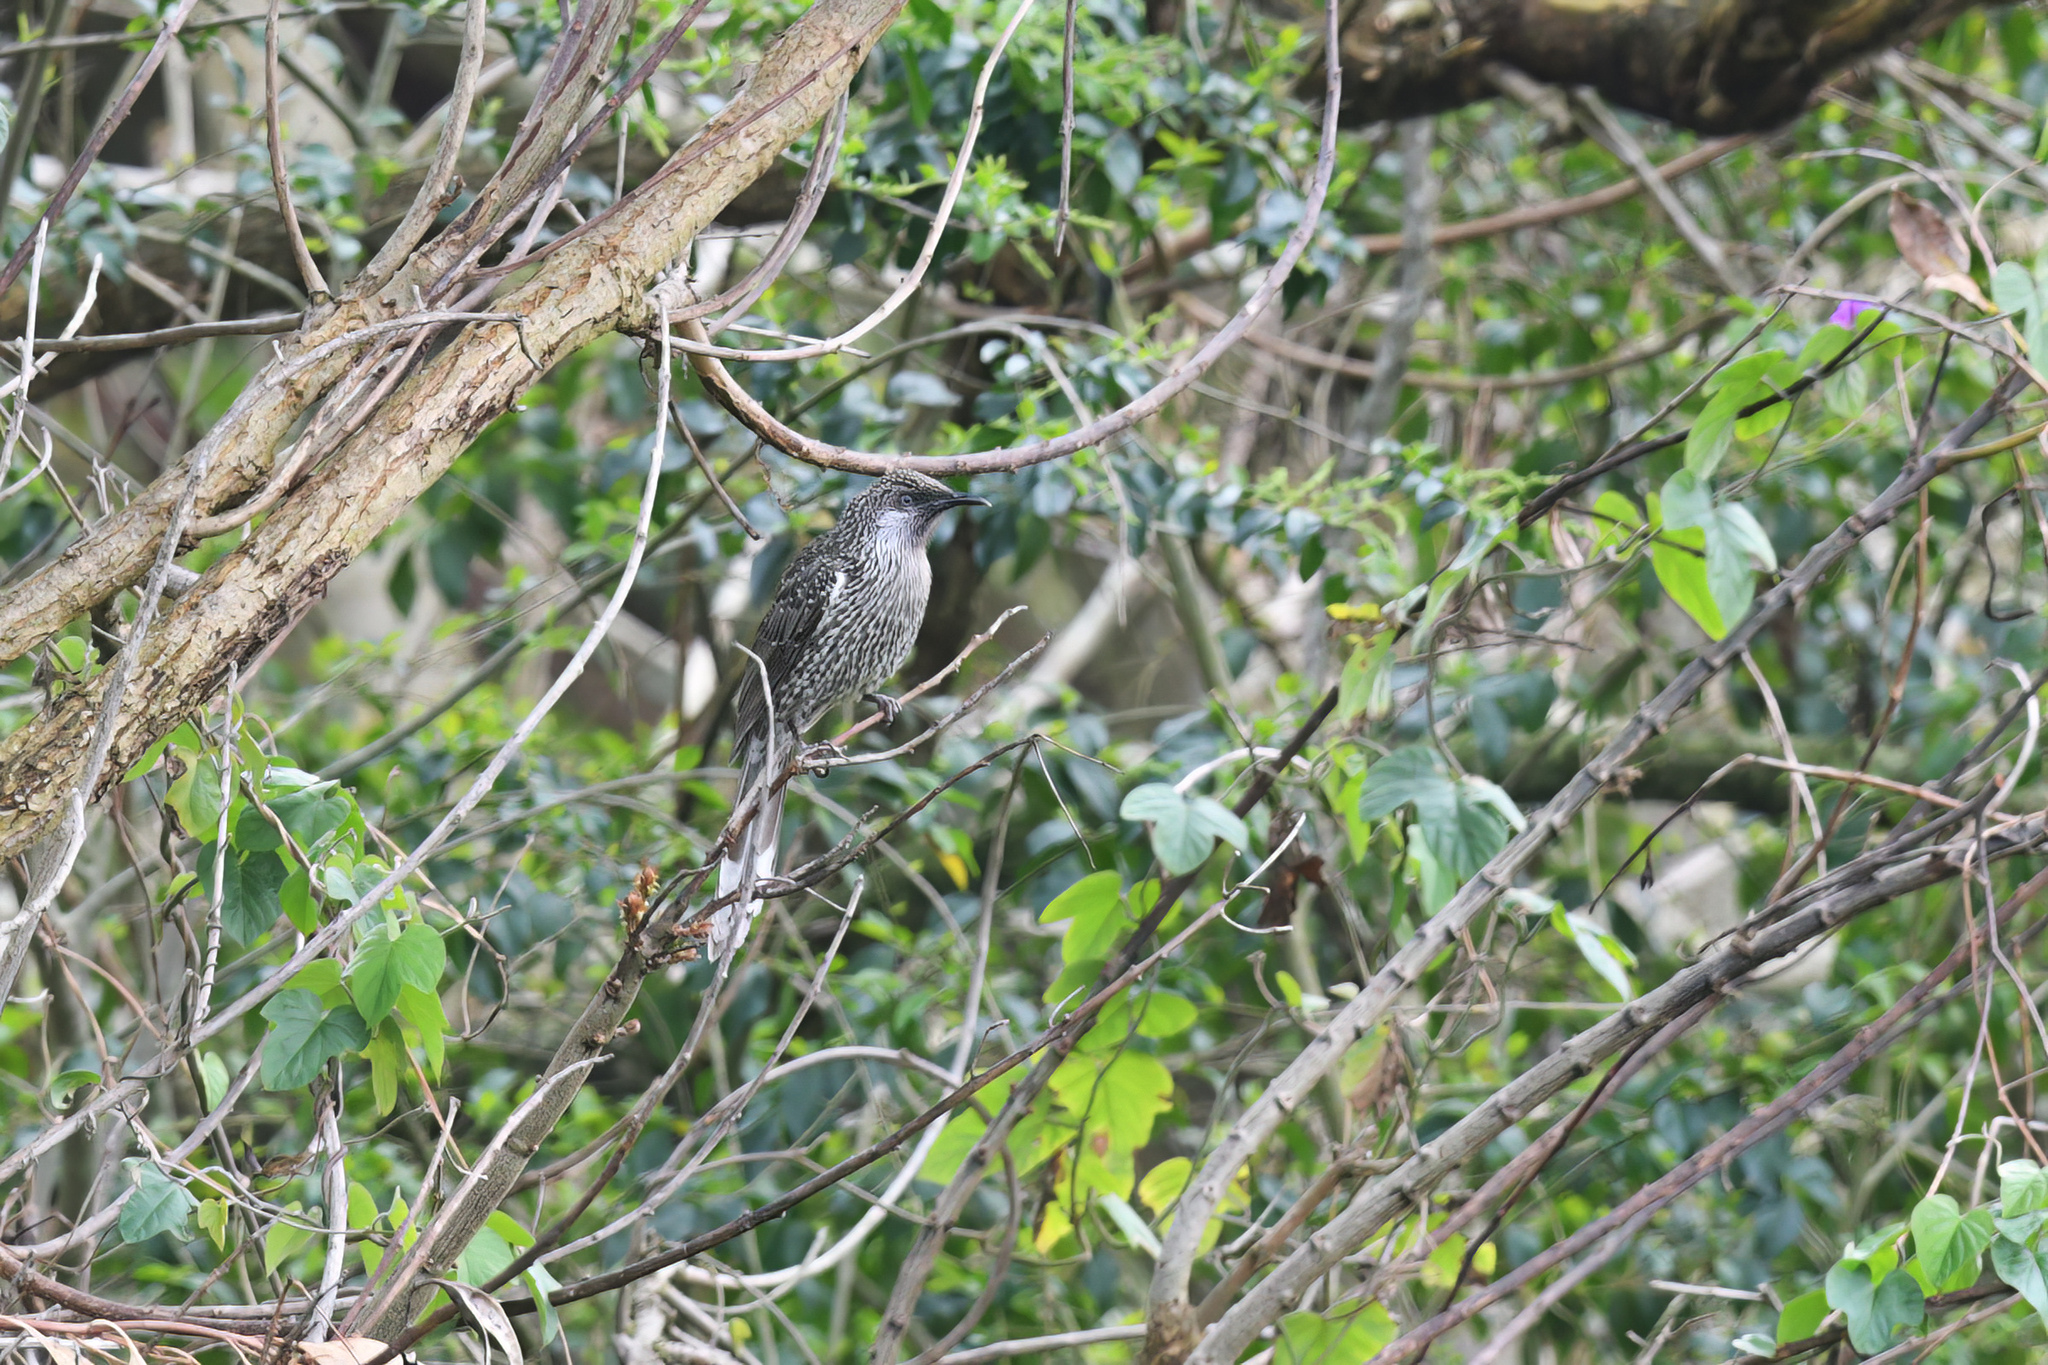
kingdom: Animalia
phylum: Chordata
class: Aves
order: Passeriformes
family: Meliphagidae
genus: Anthochaera
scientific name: Anthochaera chrysoptera
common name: Little wattlebird
